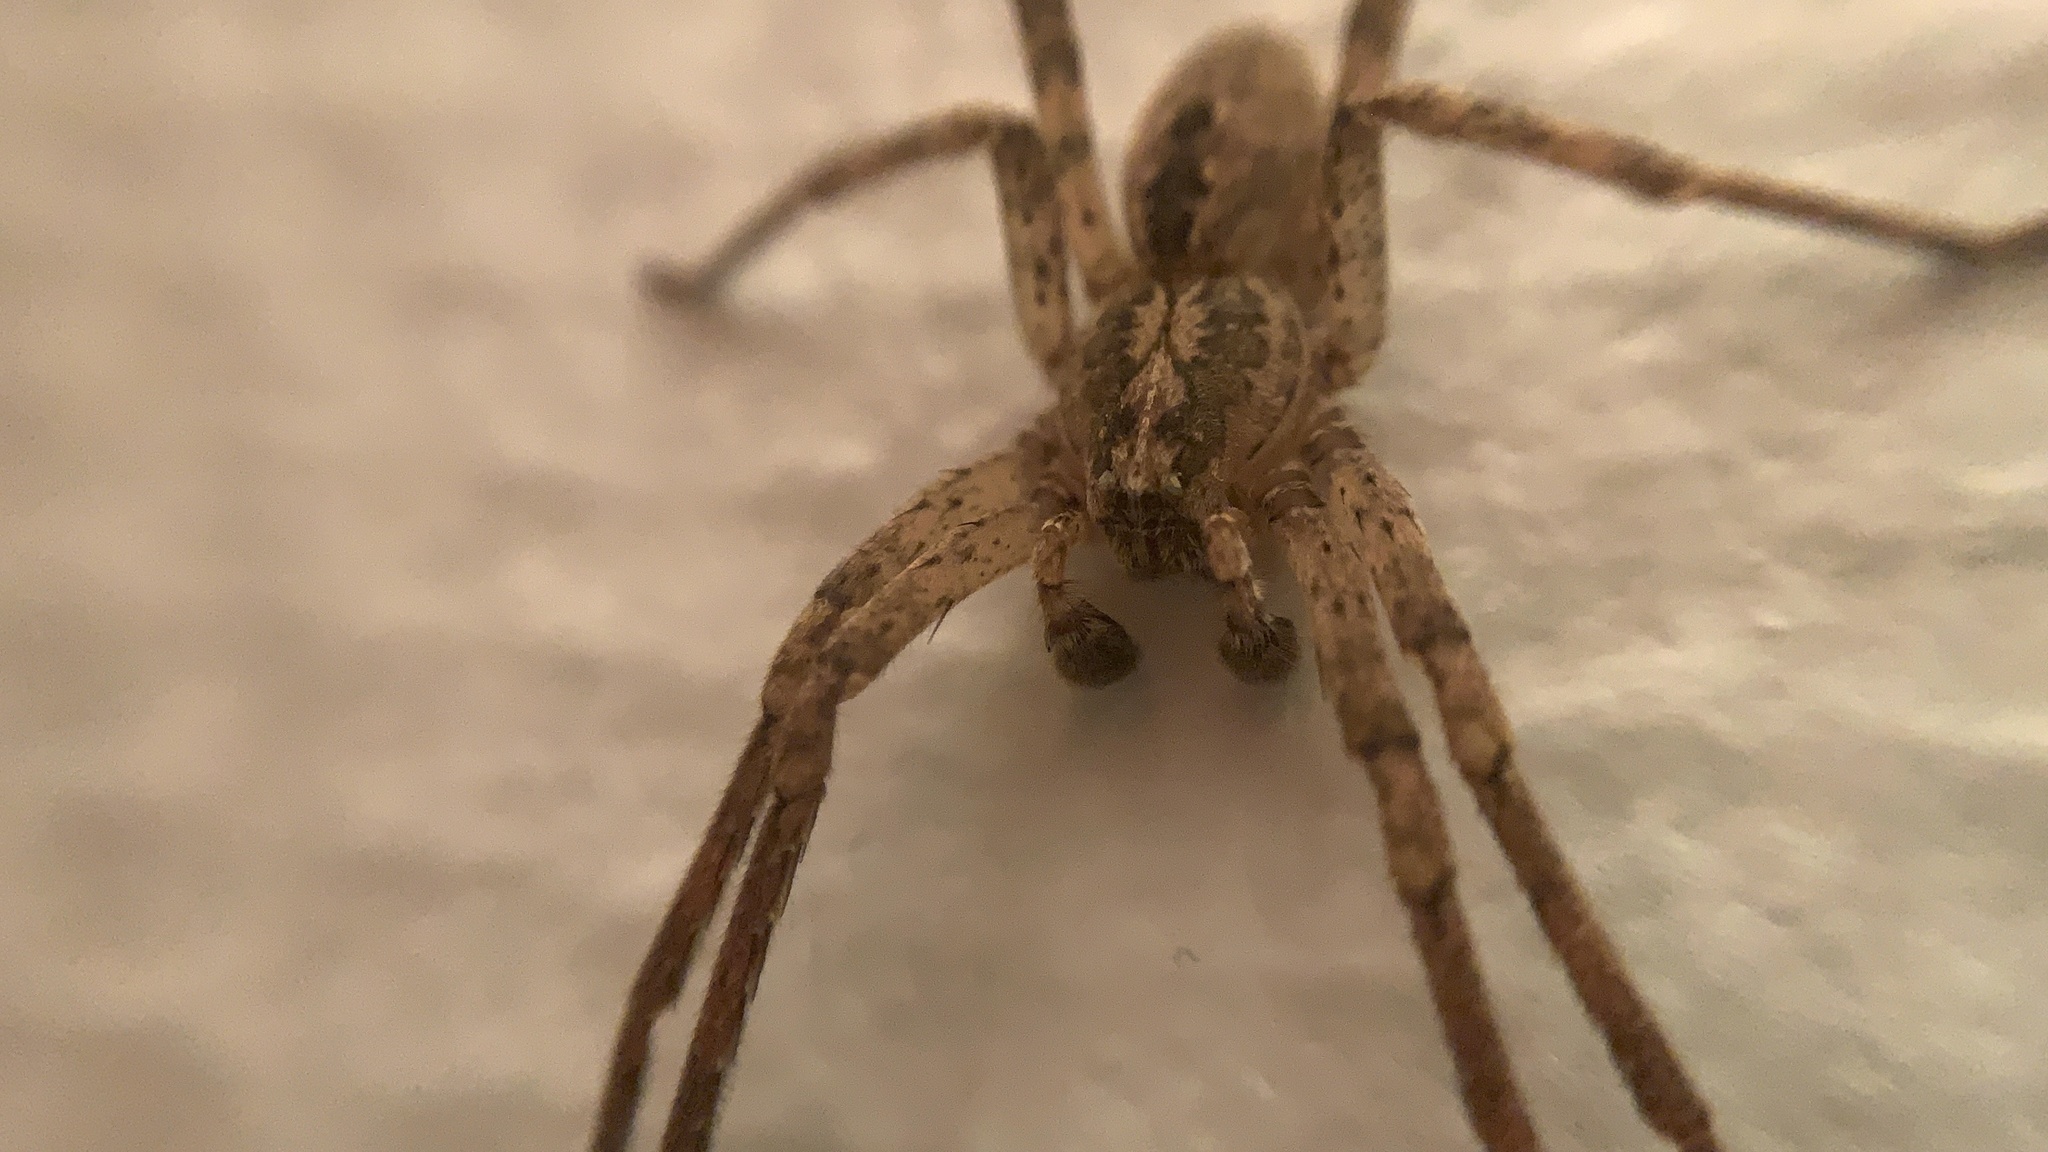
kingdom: Animalia
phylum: Arthropoda
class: Arachnida
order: Araneae
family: Zoropsidae
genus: Zoropsis
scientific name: Zoropsis spinimana
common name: Zoropsid spider
